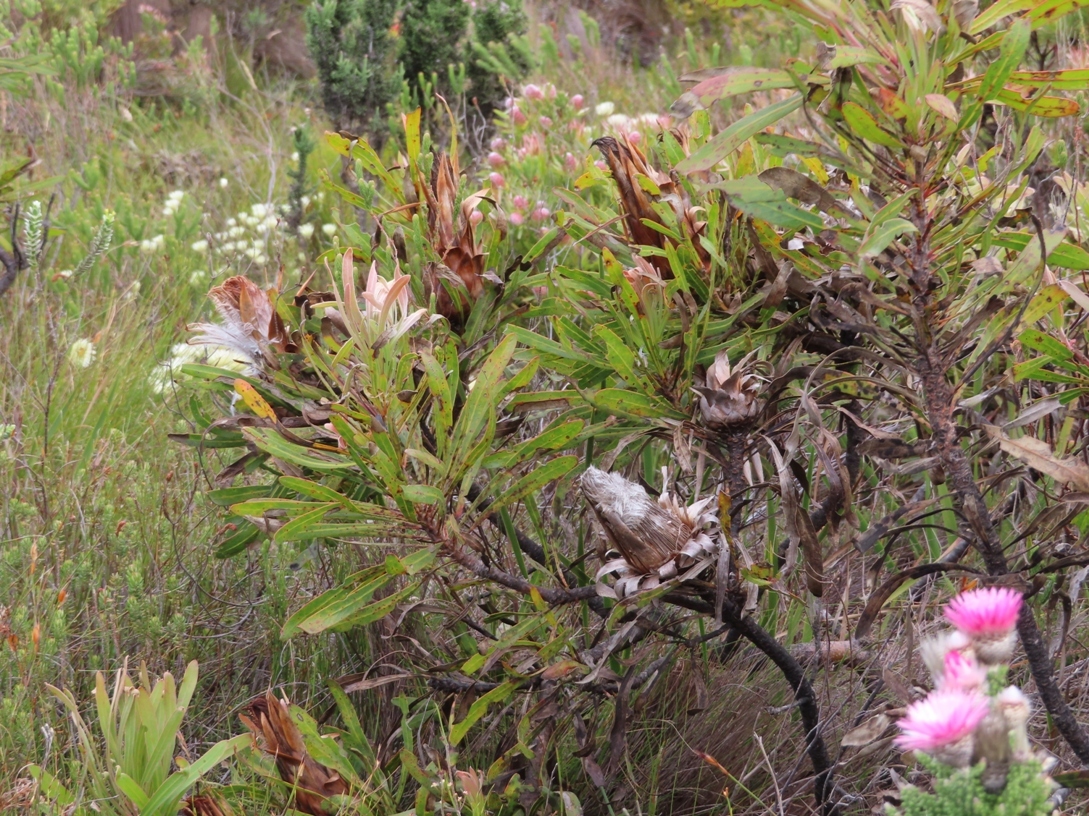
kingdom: Plantae
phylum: Tracheophyta
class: Magnoliopsida
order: Proteales
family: Proteaceae
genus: Protea
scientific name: Protea longifolia
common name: Long-leaf sugarbush
